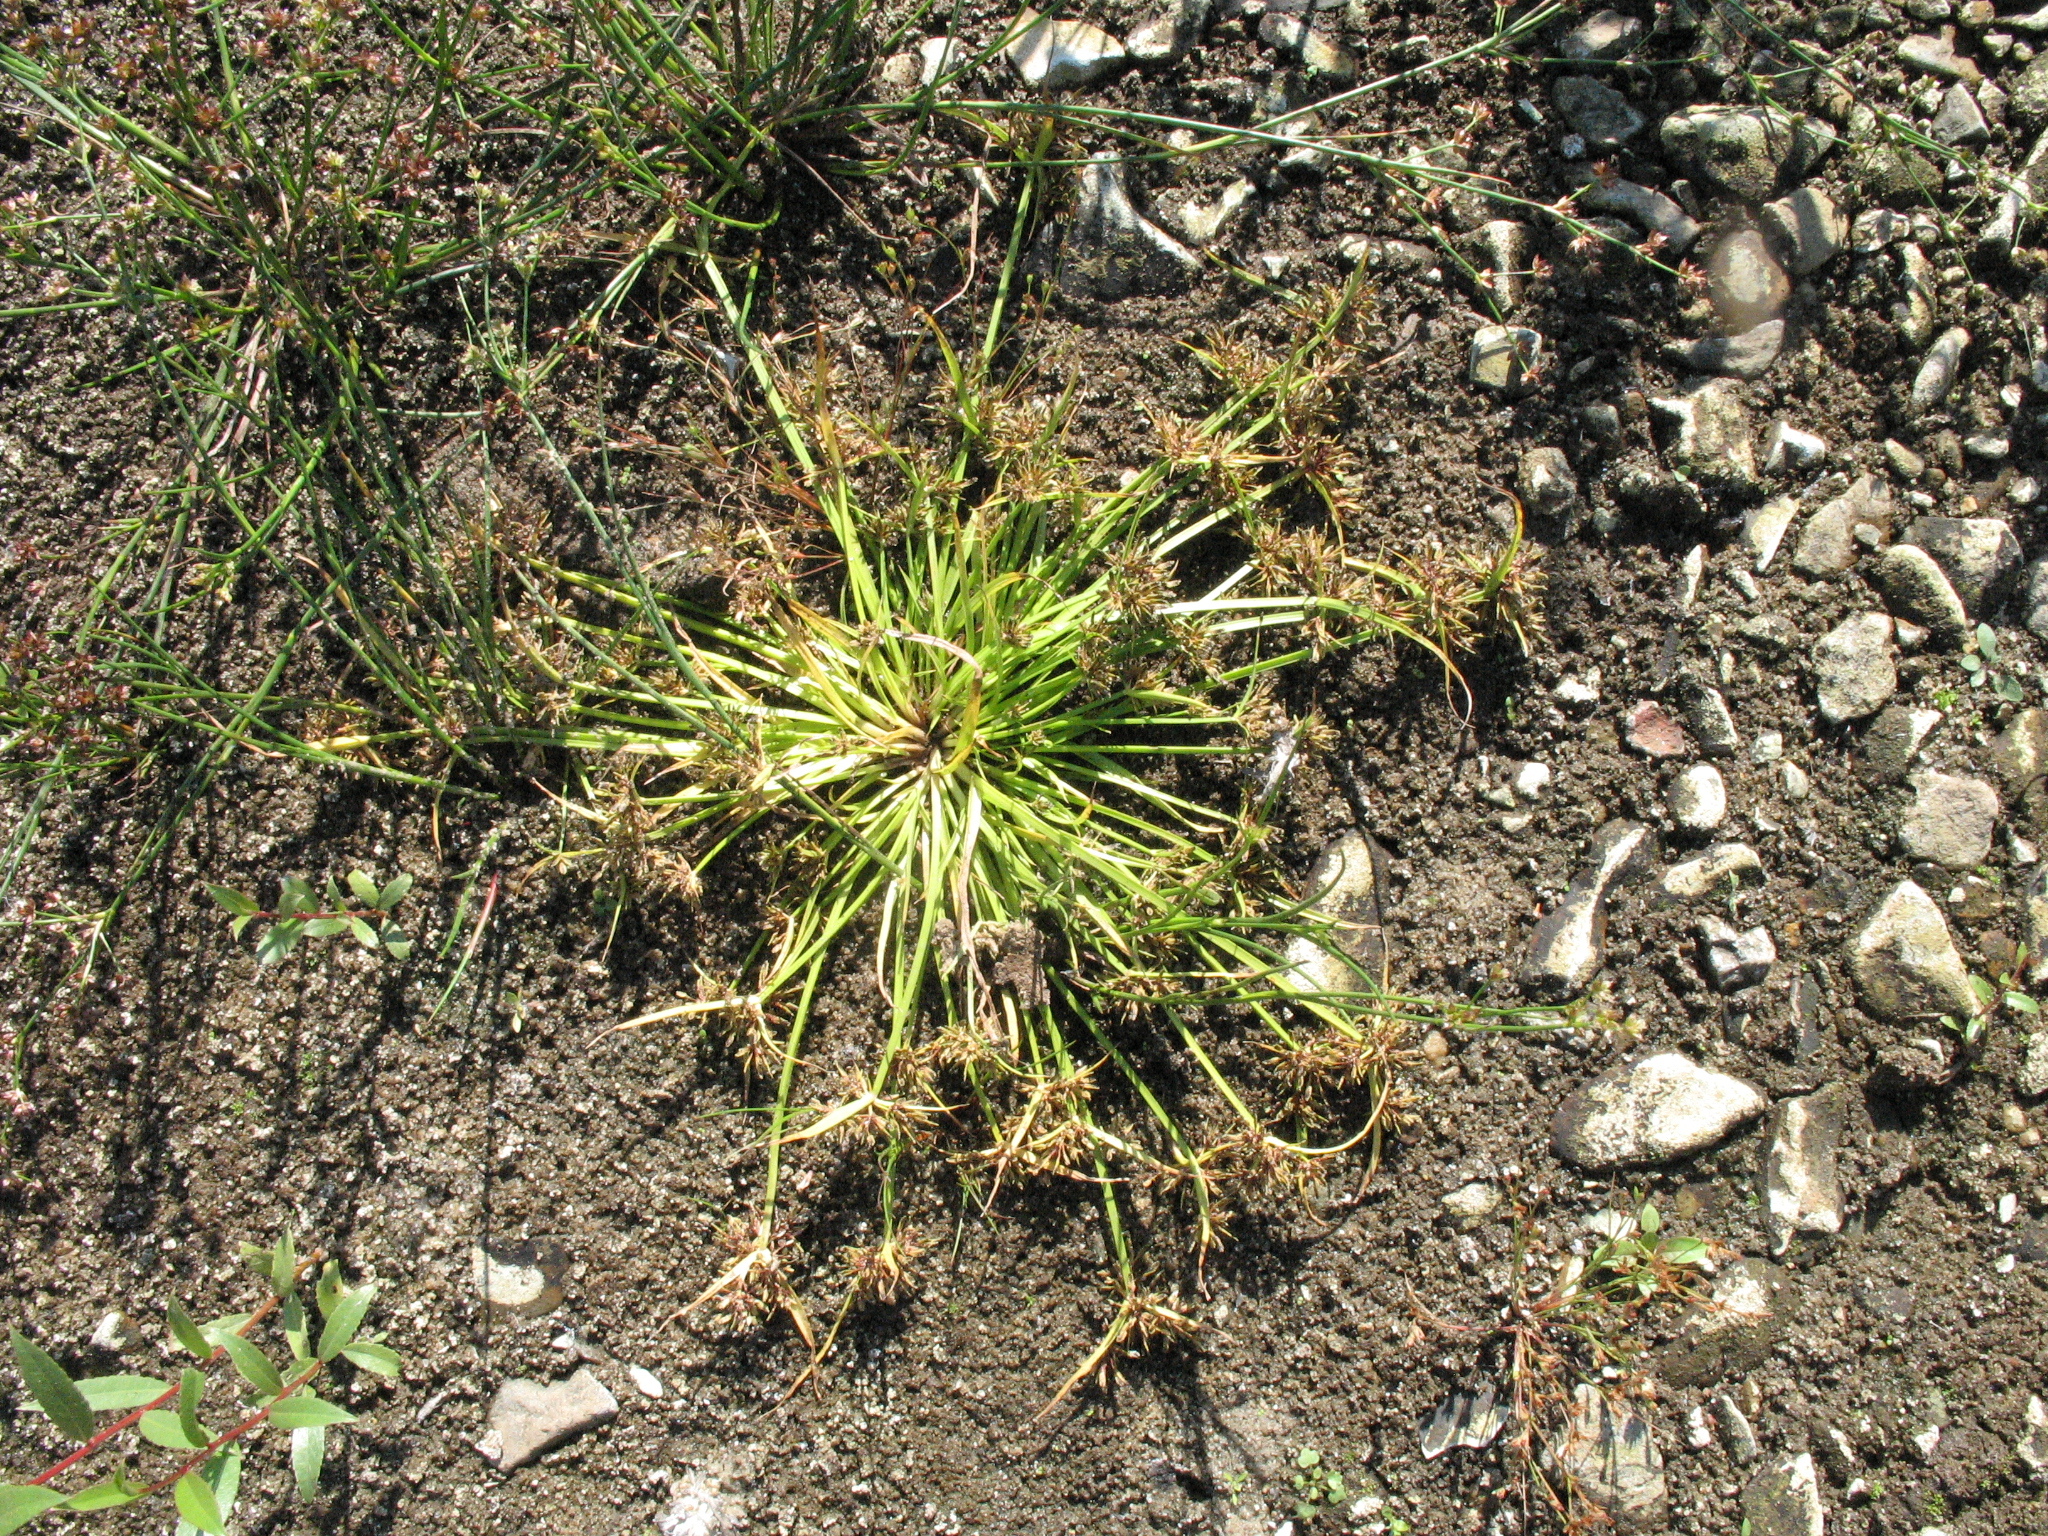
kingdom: Plantae
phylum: Tracheophyta
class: Liliopsida
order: Poales
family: Cyperaceae
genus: Cyperus
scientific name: Cyperus fuscus
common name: Brown galingale
